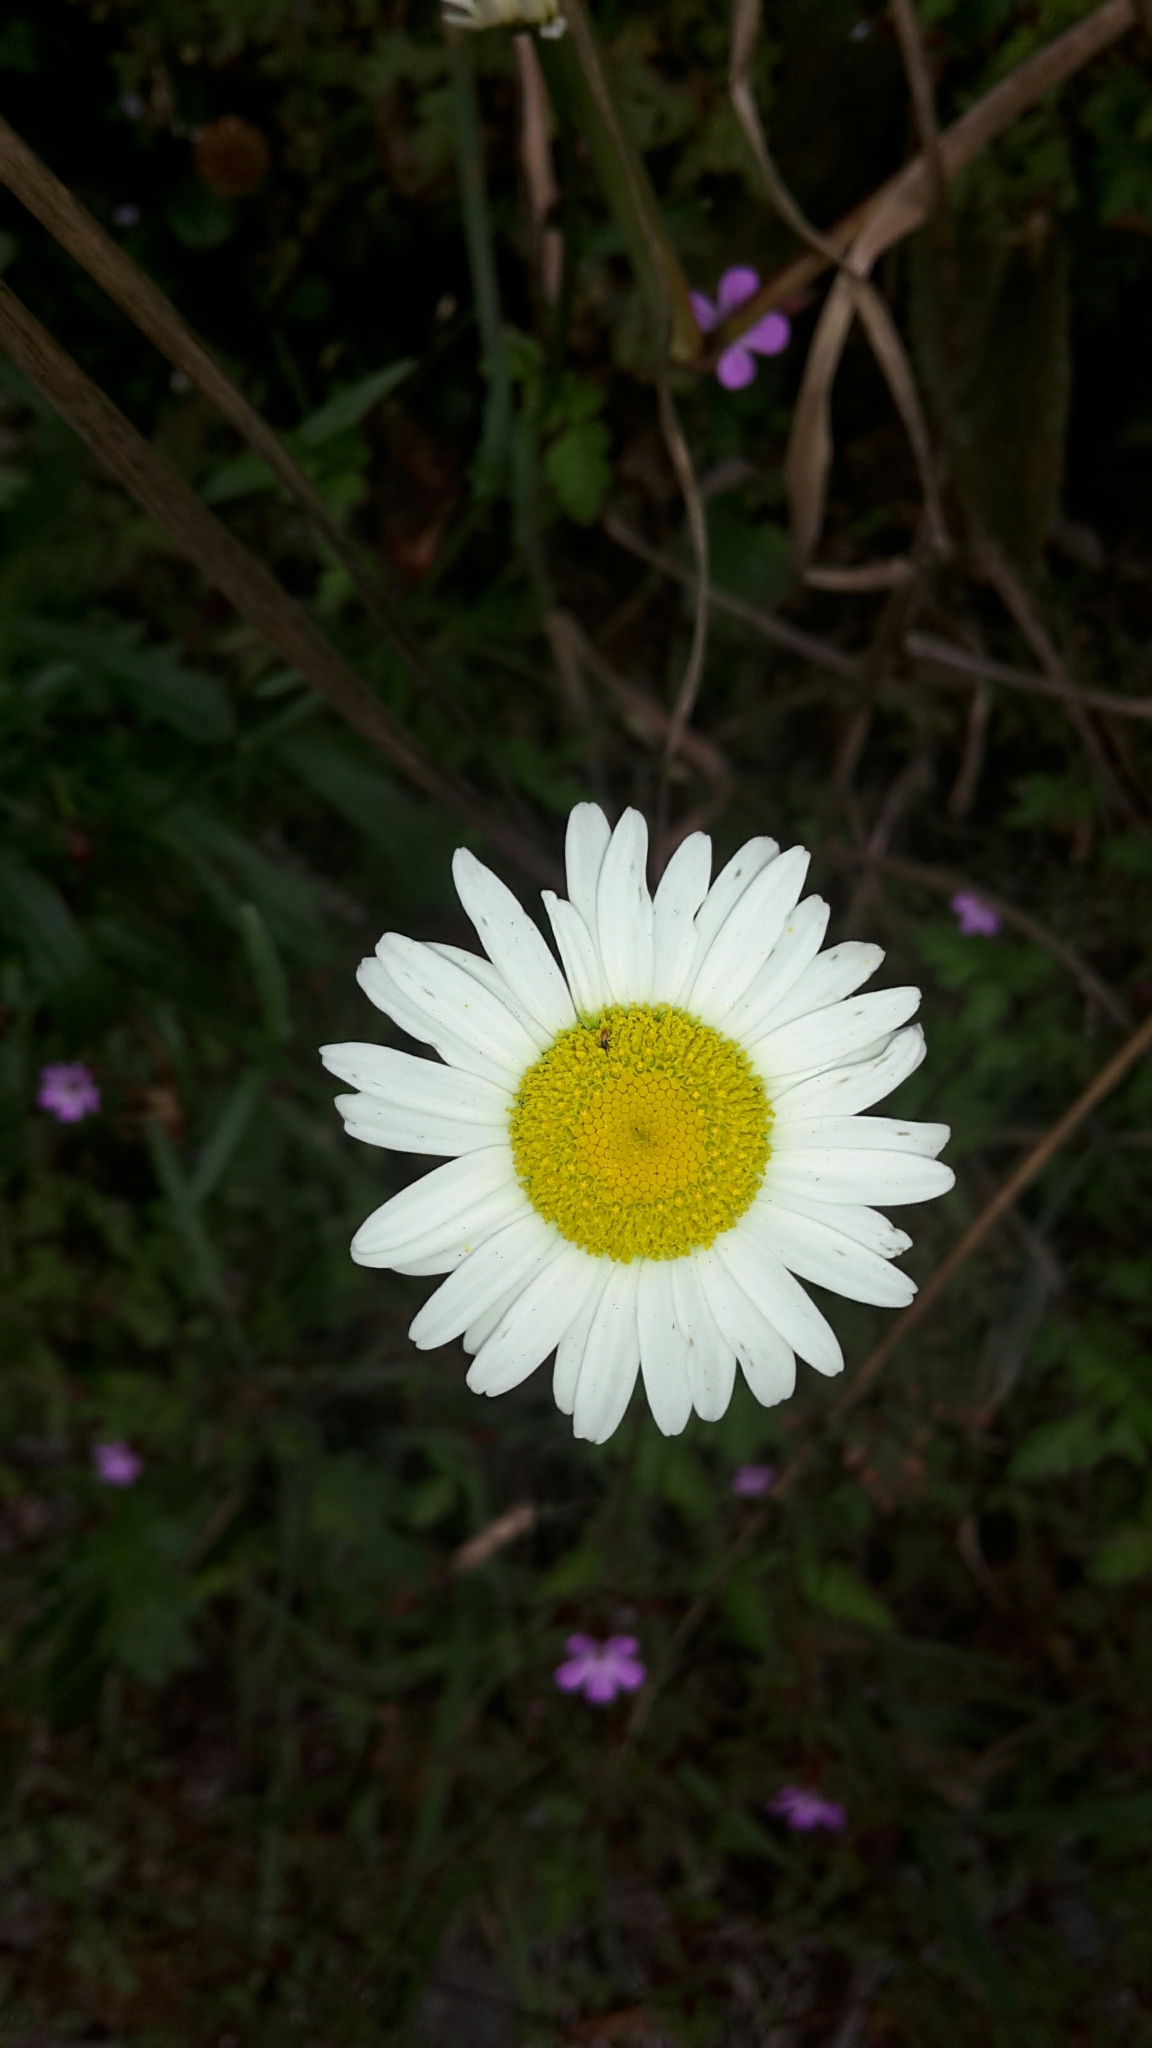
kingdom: Plantae
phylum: Tracheophyta
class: Magnoliopsida
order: Asterales
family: Asteraceae
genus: Leucanthemum
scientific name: Leucanthemum vulgare
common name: Oxeye daisy
